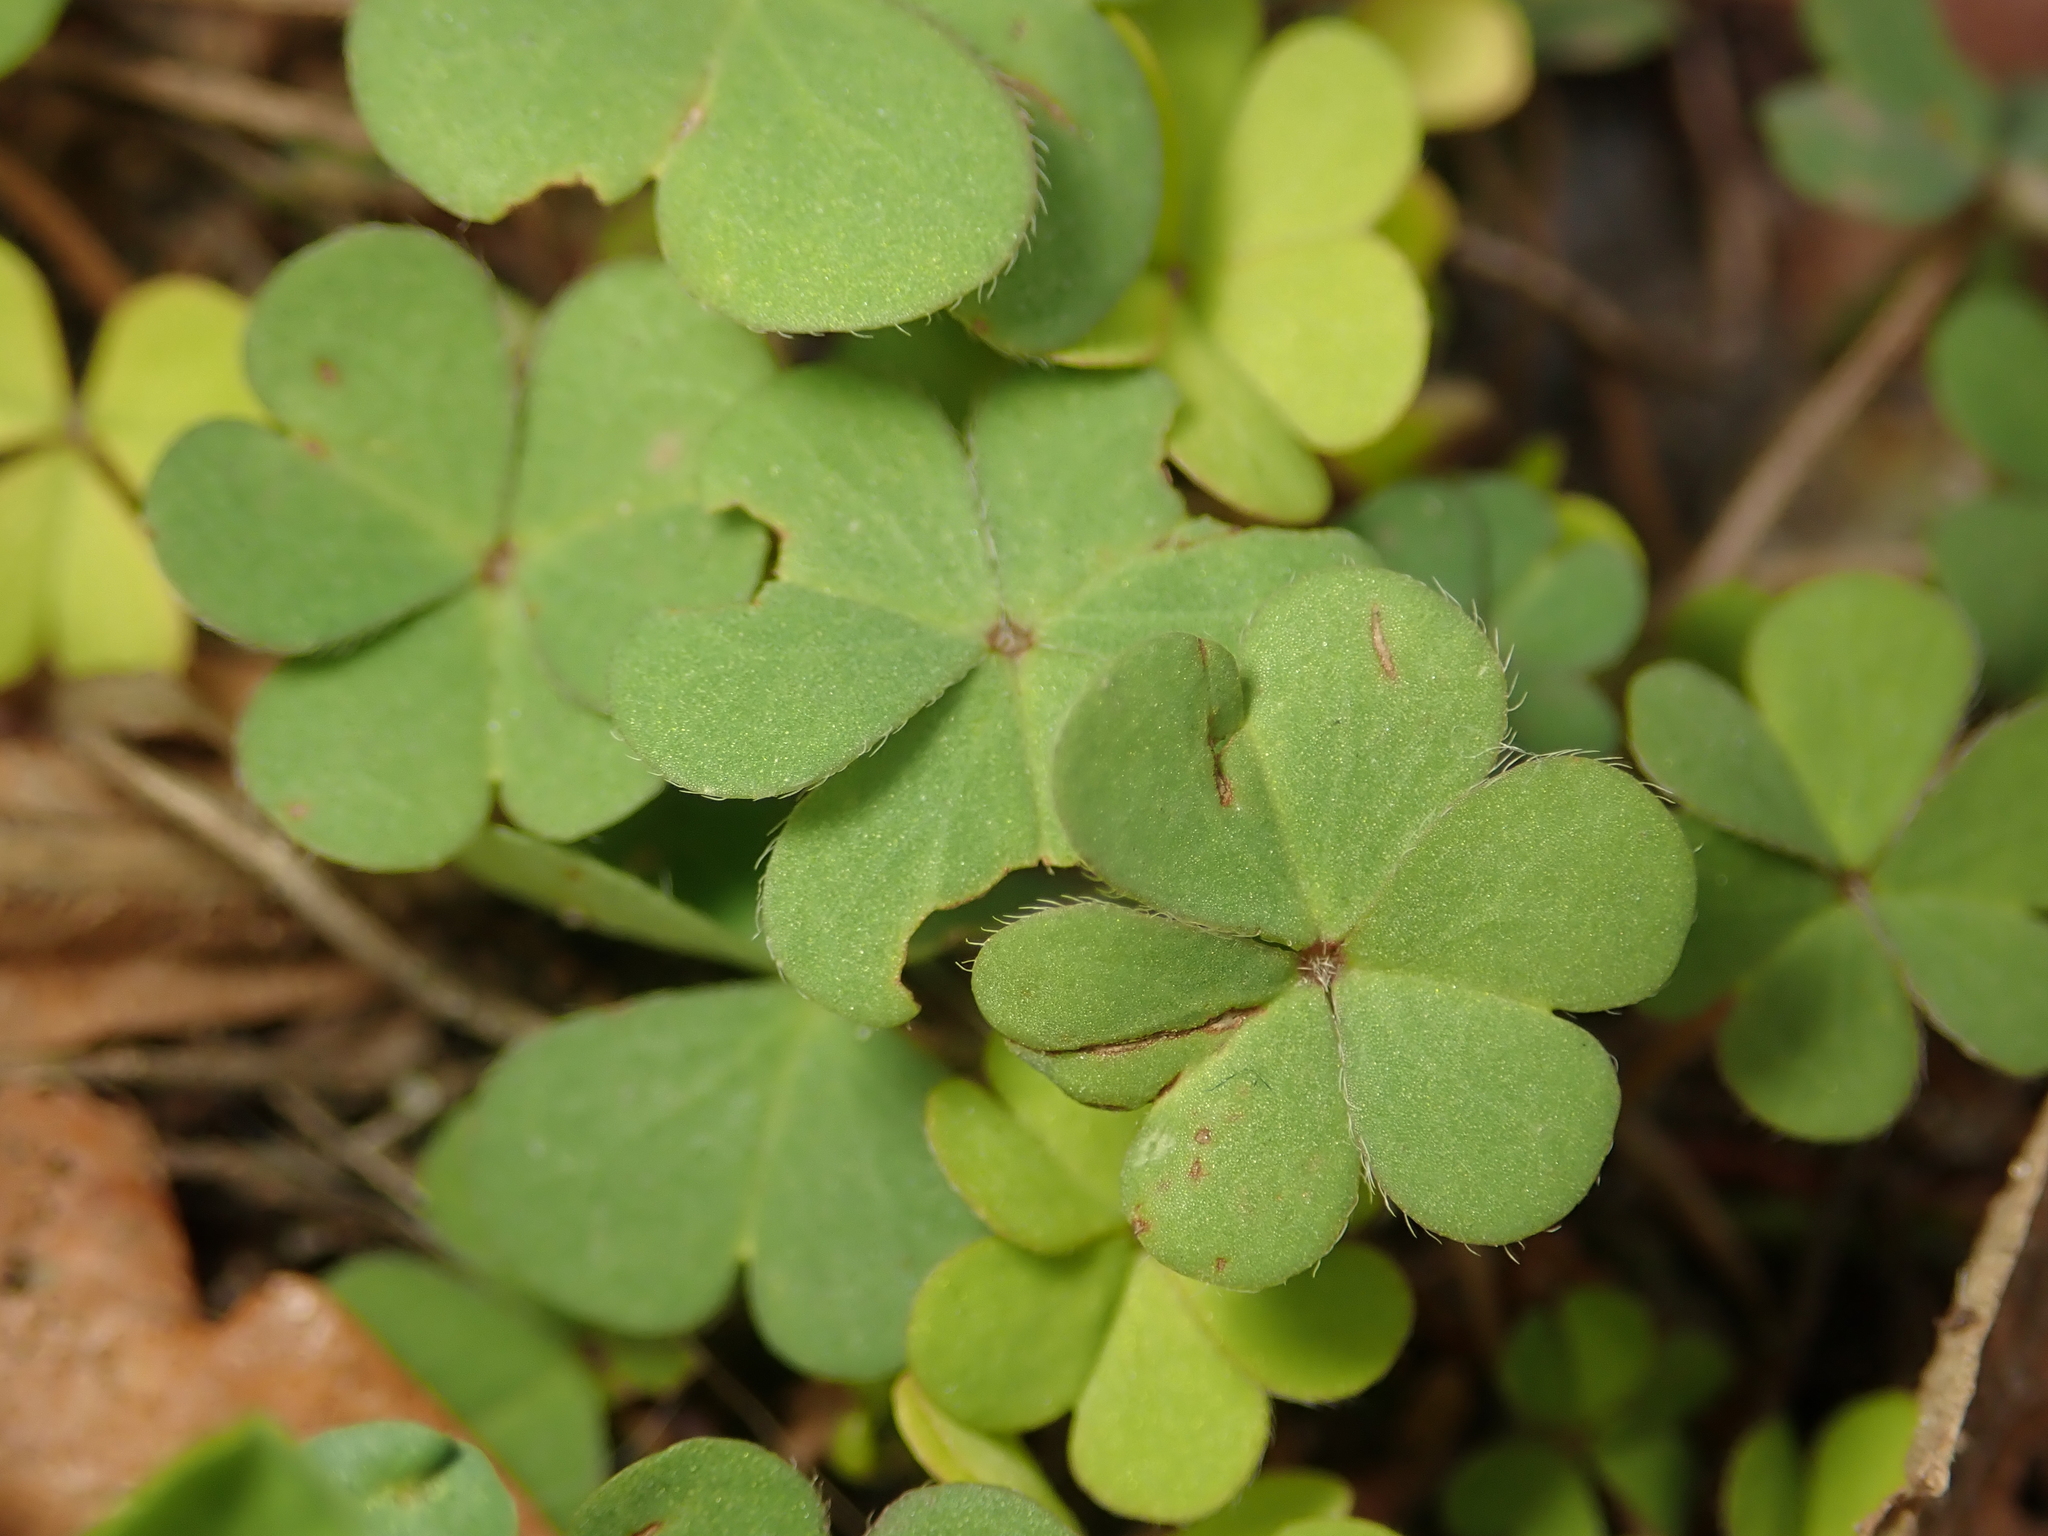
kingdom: Plantae
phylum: Tracheophyta
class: Magnoliopsida
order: Oxalidales
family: Oxalidaceae
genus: Oxalis
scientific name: Oxalis corniculata
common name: Procumbent yellow-sorrel
